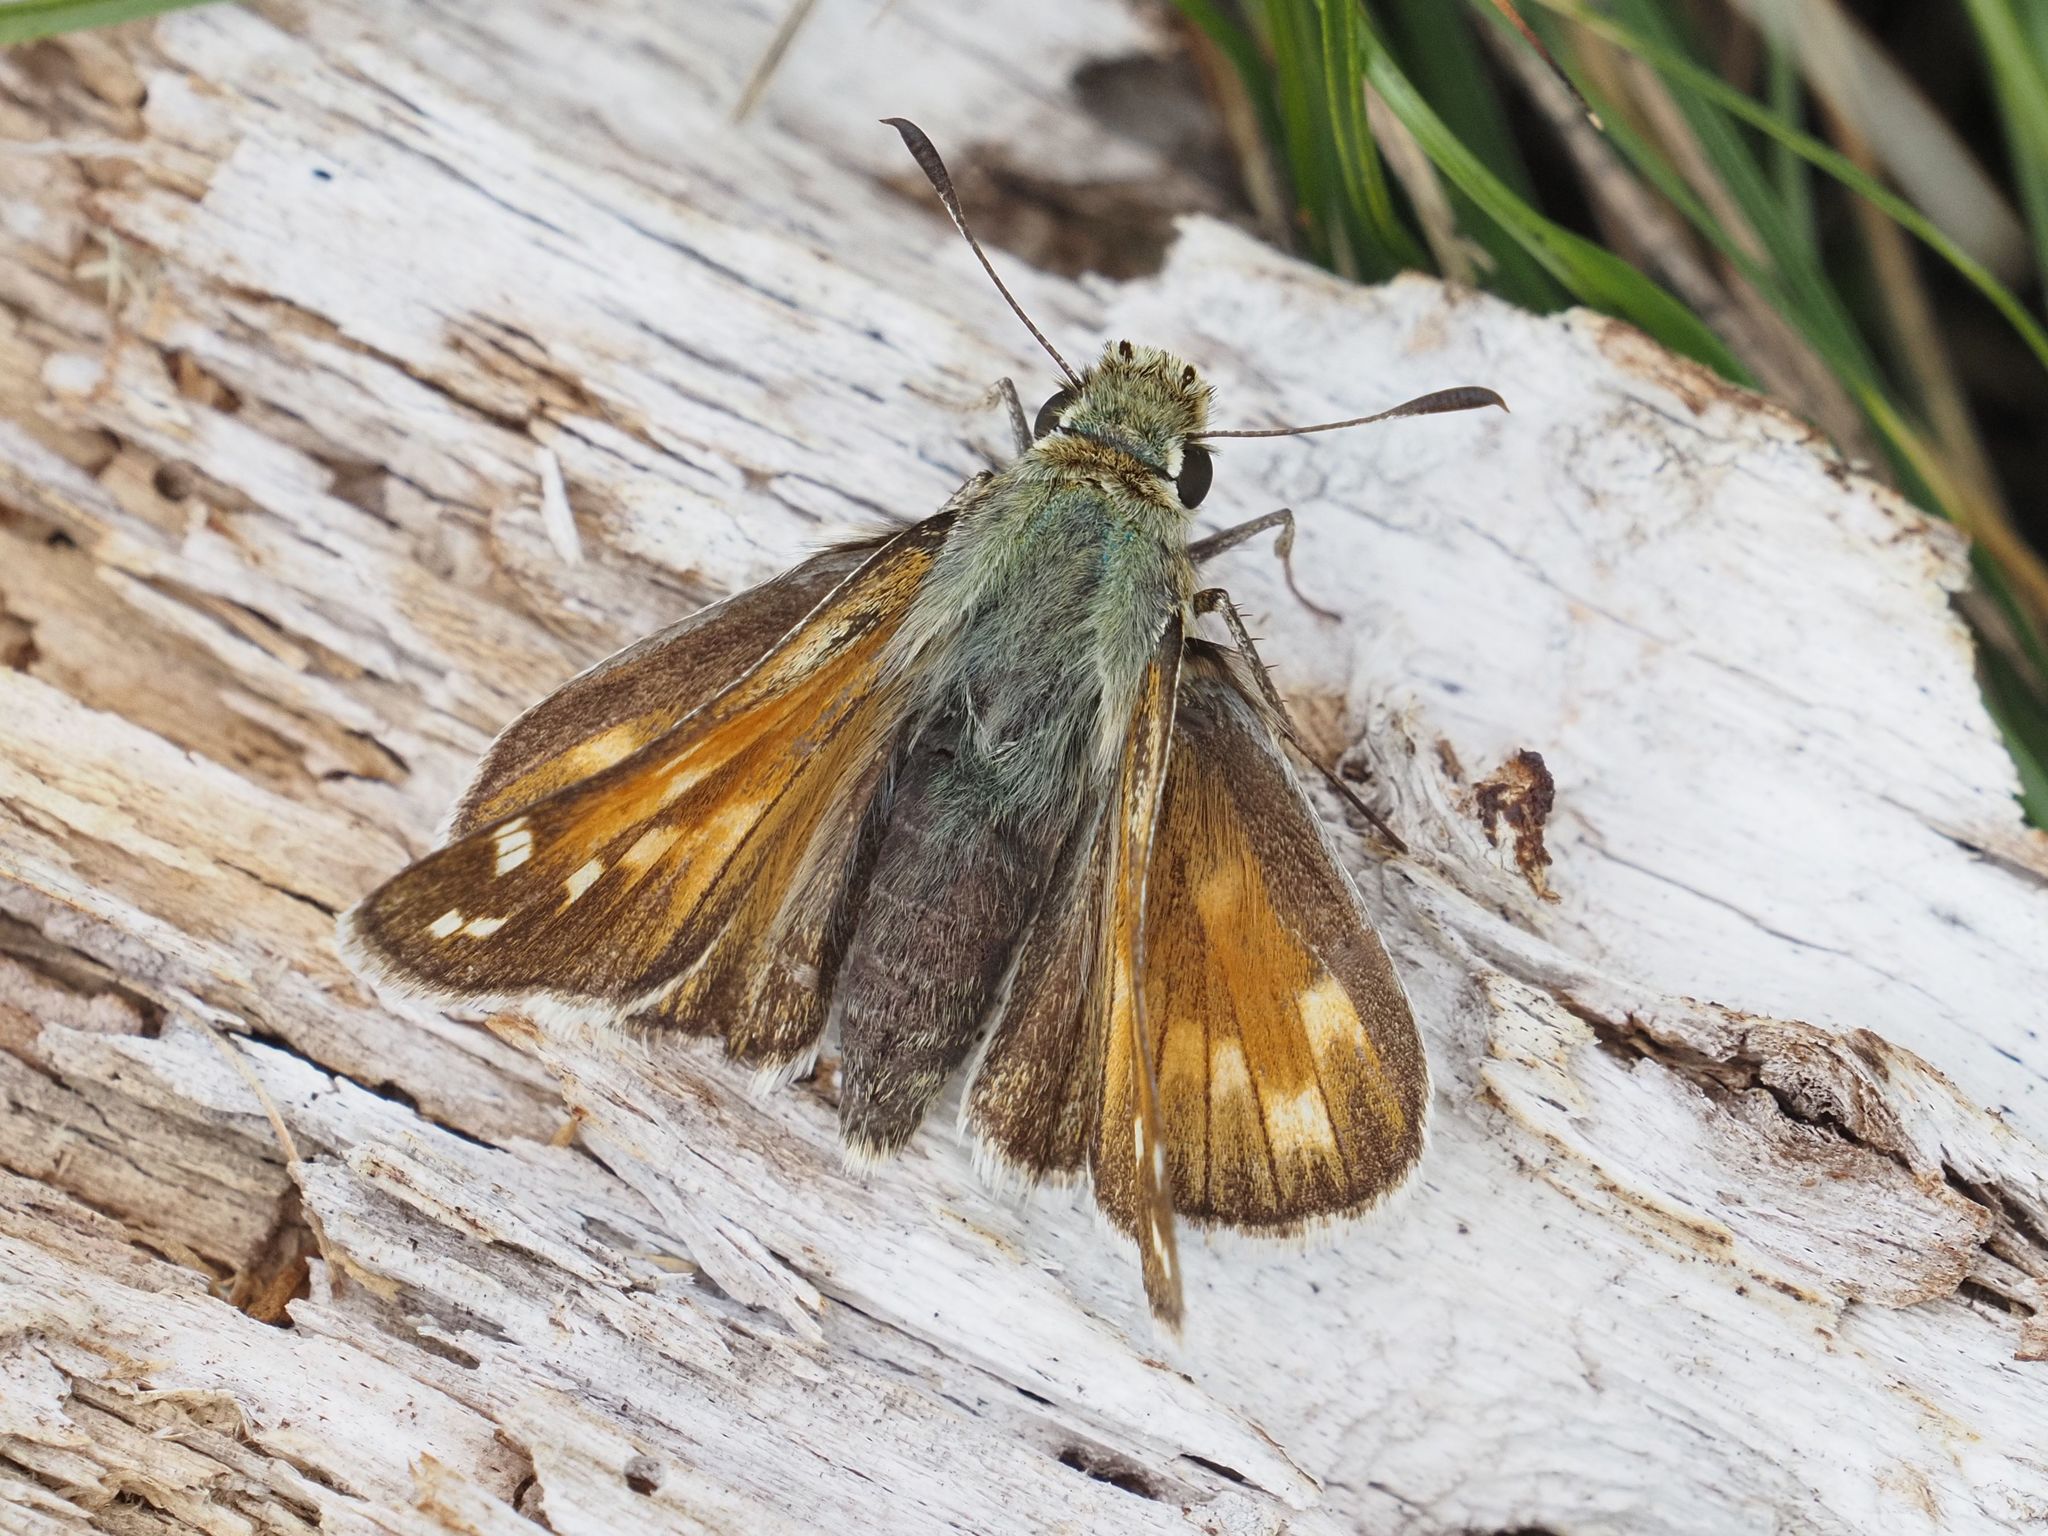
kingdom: Animalia
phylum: Arthropoda
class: Insecta
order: Lepidoptera
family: Hesperiidae
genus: Hesperia
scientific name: Hesperia comma
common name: Common branded skipper
